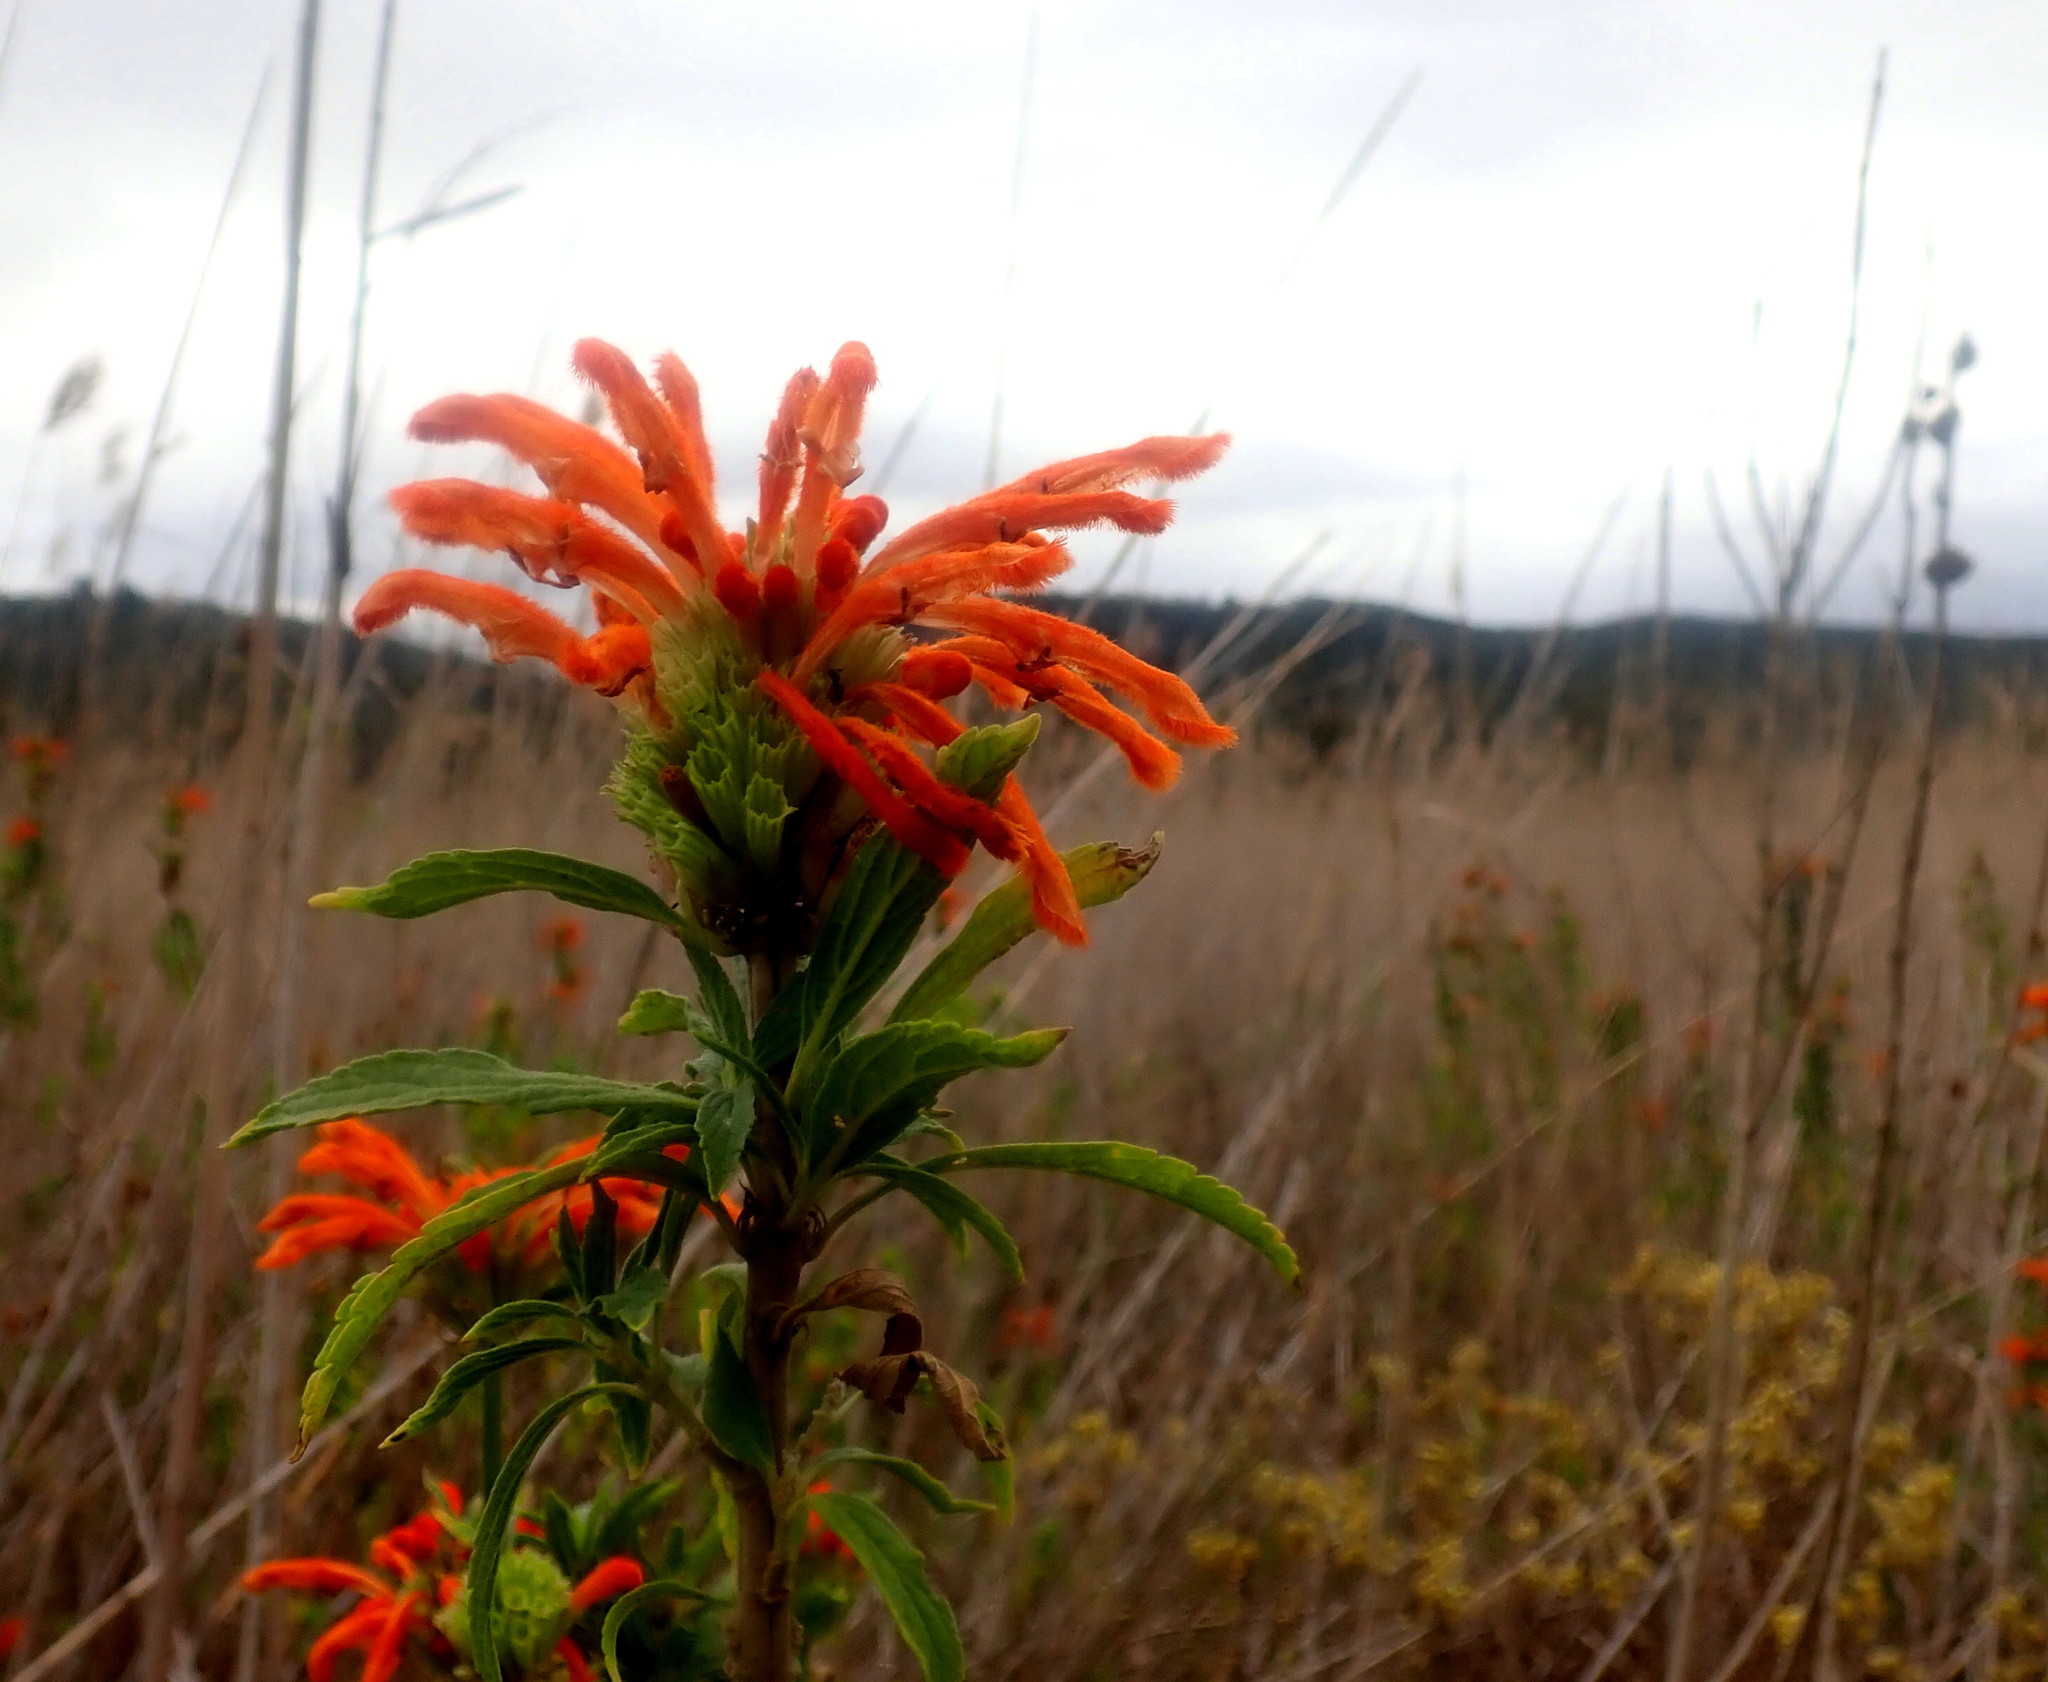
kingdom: Plantae
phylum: Tracheophyta
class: Magnoliopsida
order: Lamiales
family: Lamiaceae
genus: Leonotis
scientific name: Leonotis leonurus
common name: Lion's ear
